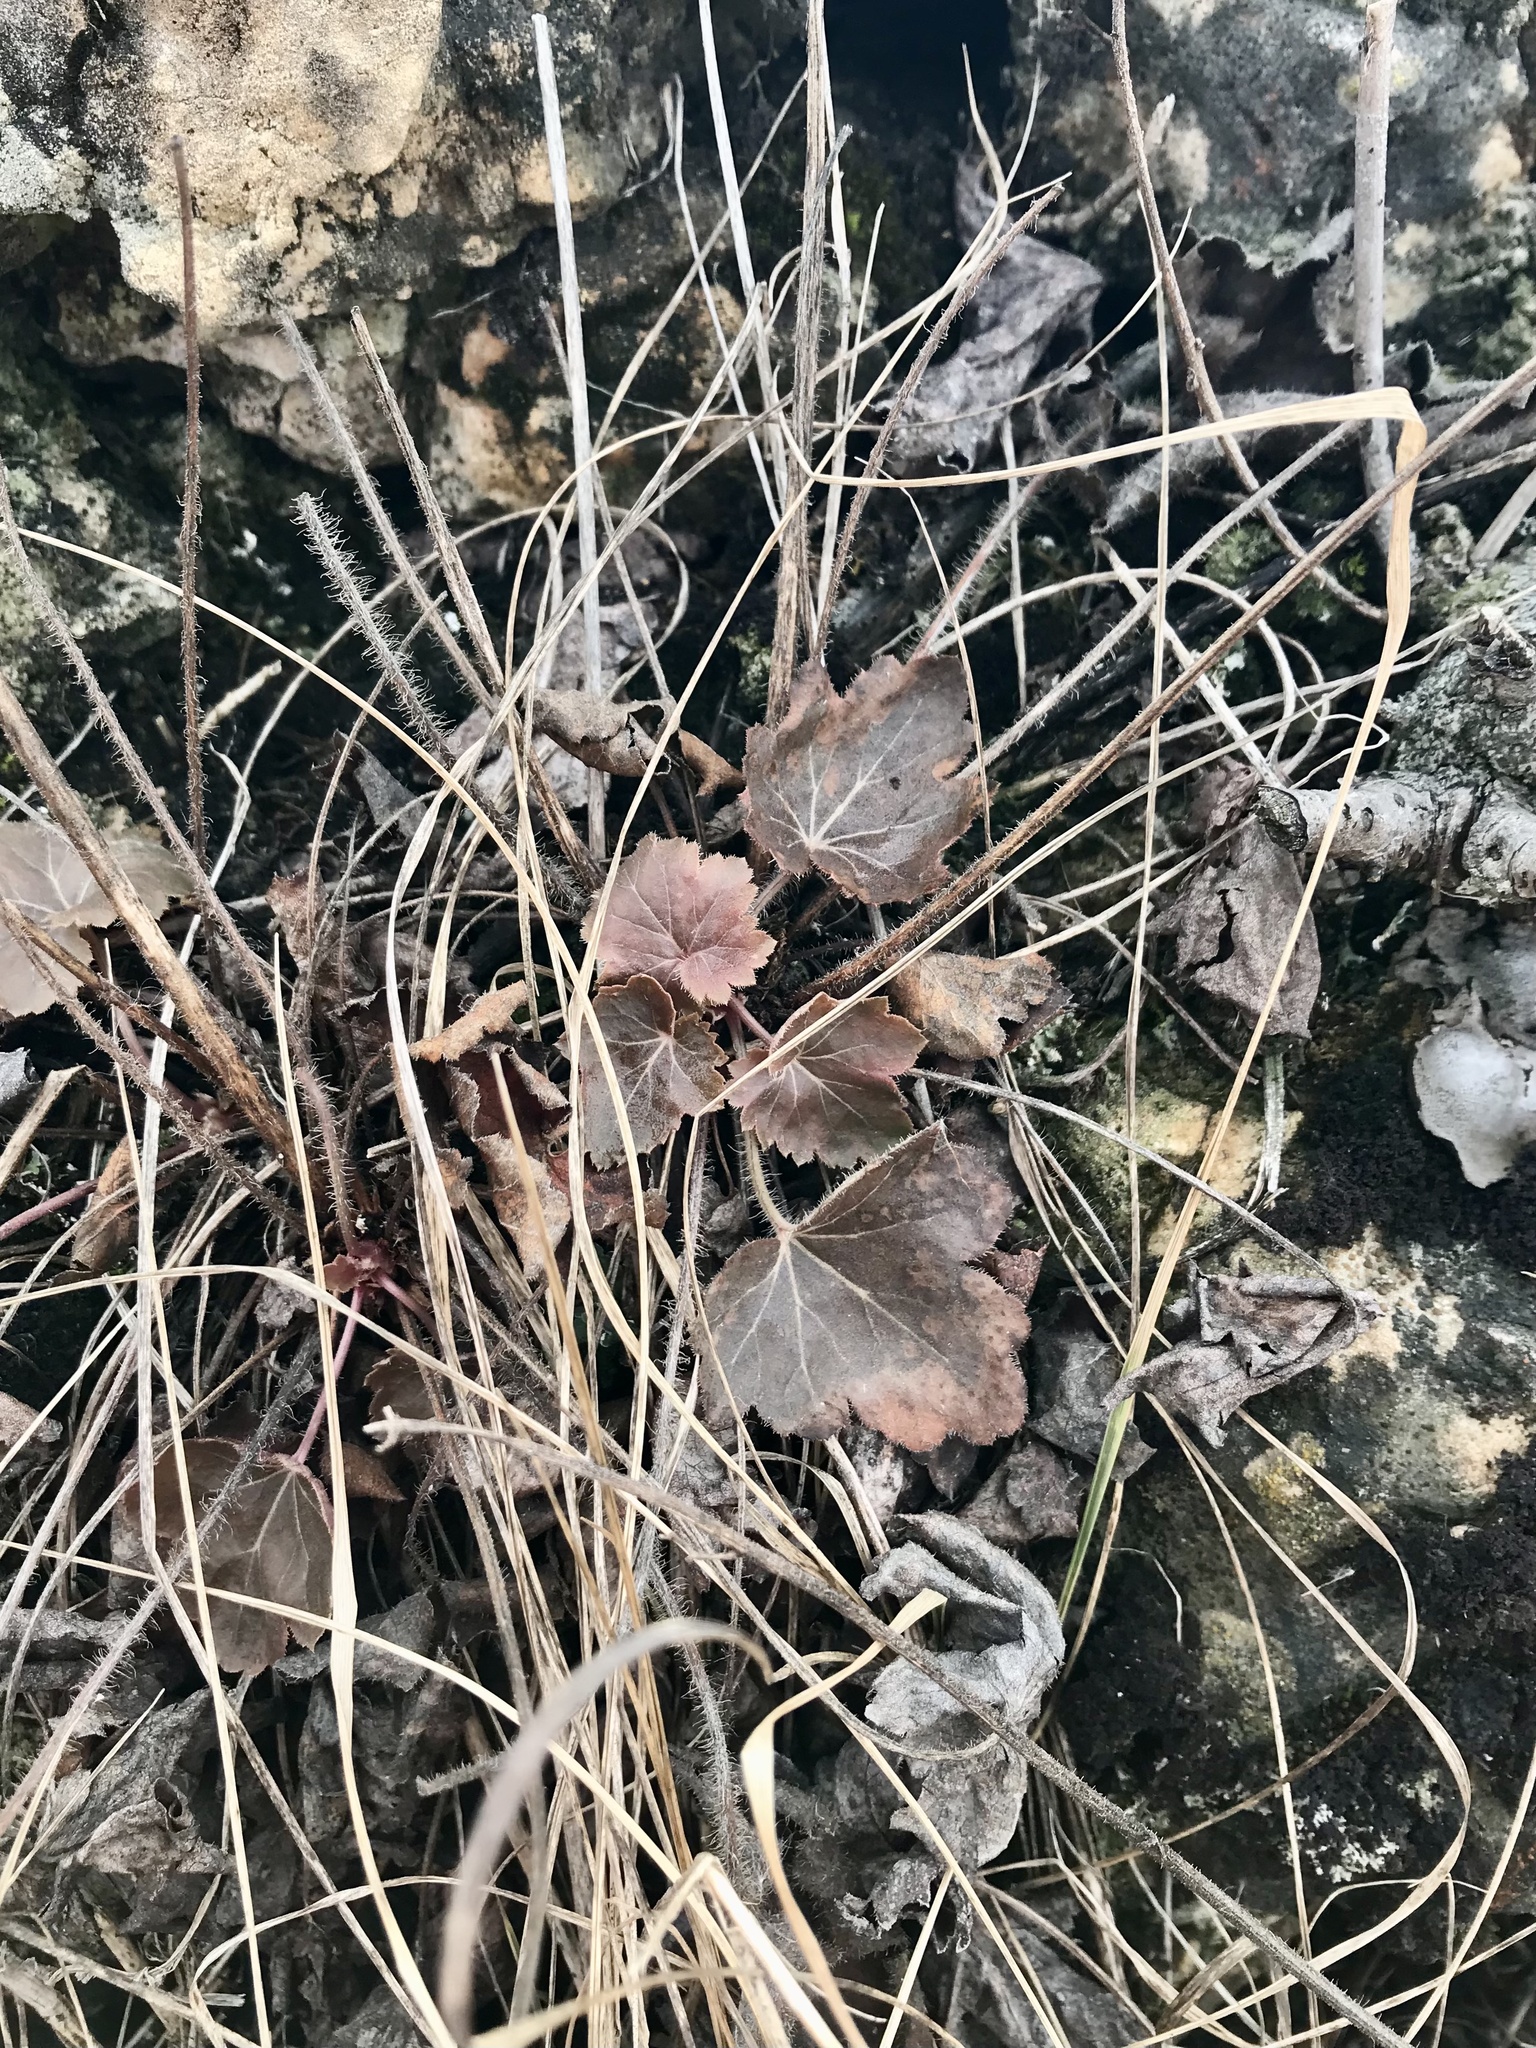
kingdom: Plantae
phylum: Tracheophyta
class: Magnoliopsida
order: Saxifragales
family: Saxifragaceae
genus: Heuchera
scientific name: Heuchera richardsonii
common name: Richardson's alumroot
